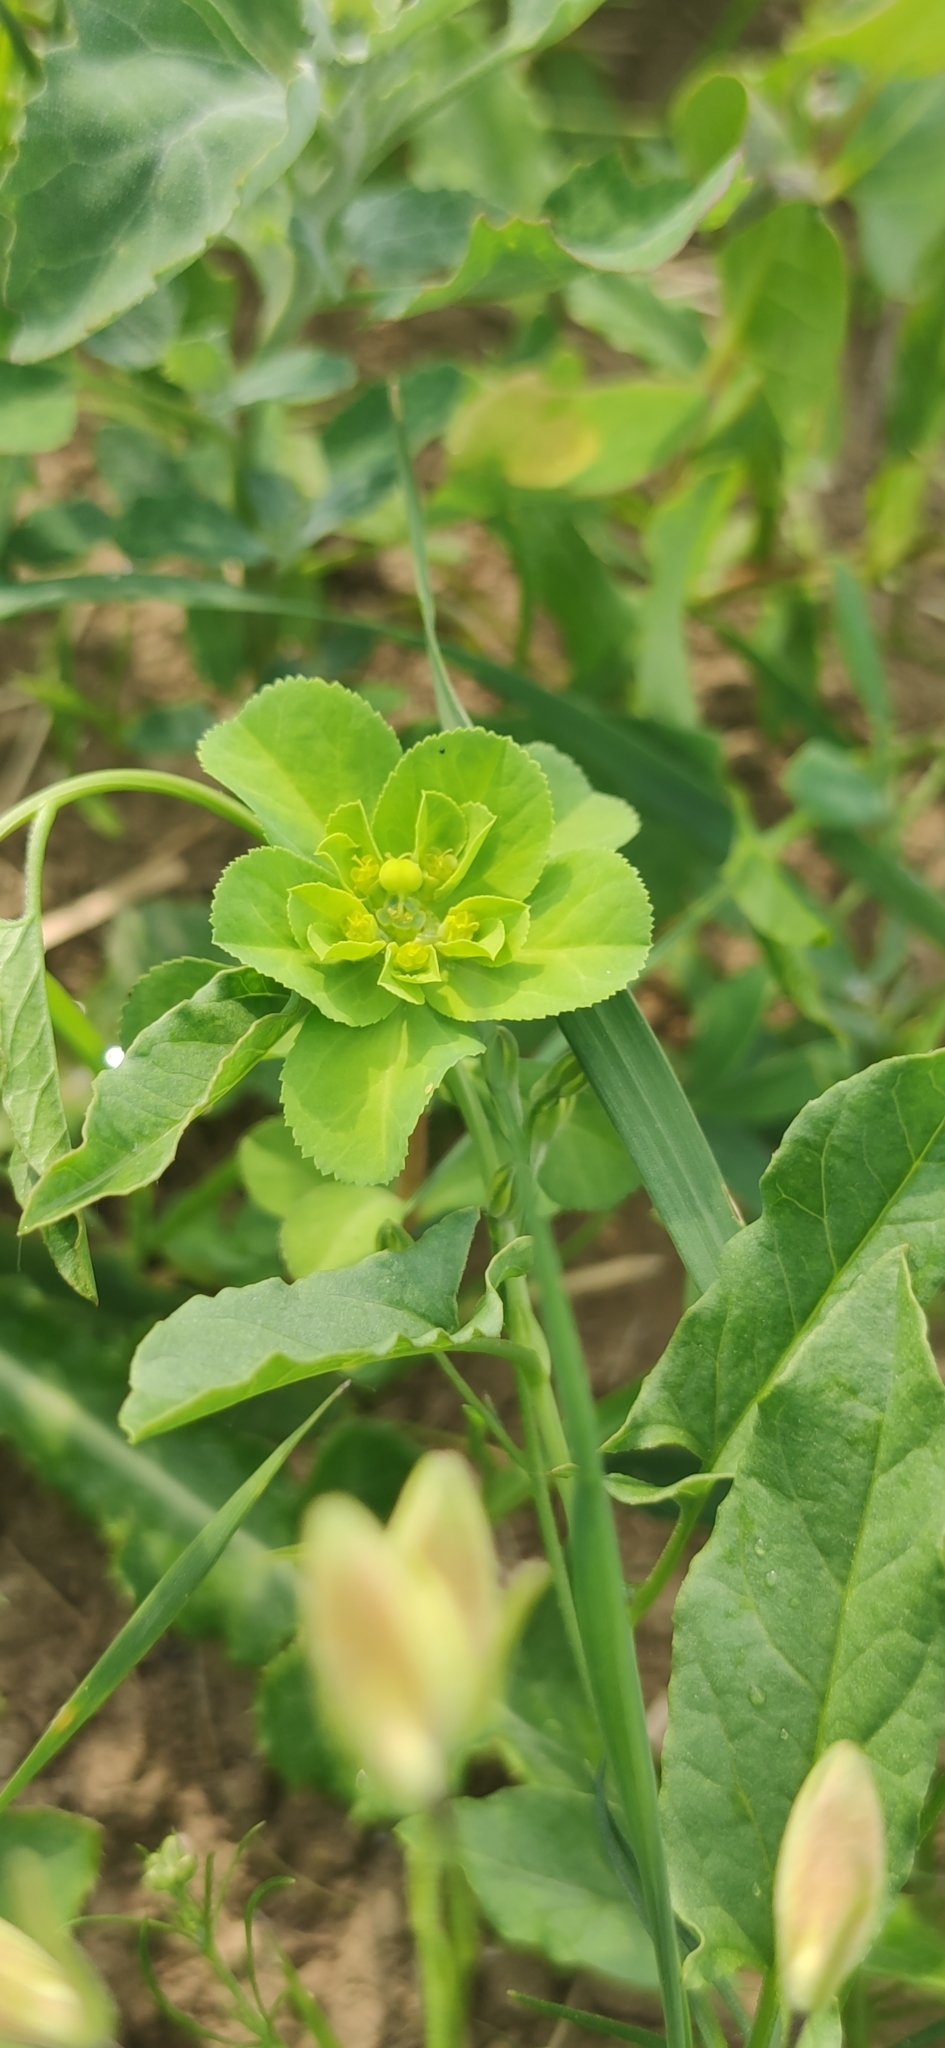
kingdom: Plantae
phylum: Tracheophyta
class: Magnoliopsida
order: Malpighiales
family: Euphorbiaceae
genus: Euphorbia
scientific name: Euphorbia helioscopia
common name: Sun spurge
